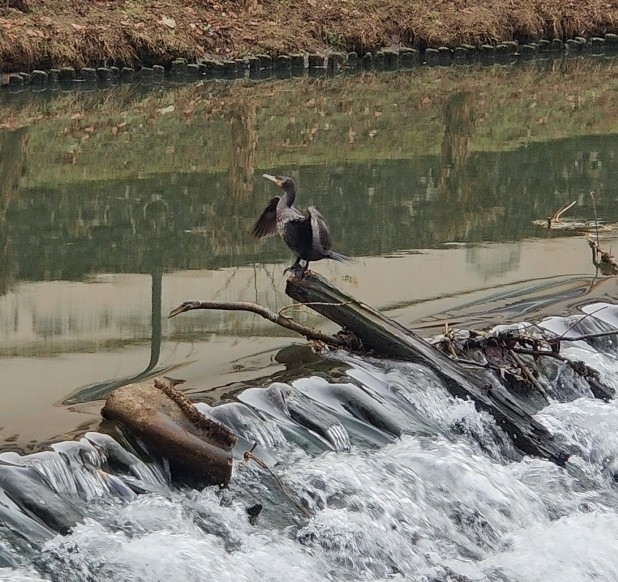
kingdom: Animalia
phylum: Chordata
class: Aves
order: Suliformes
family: Phalacrocoracidae
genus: Phalacrocorax
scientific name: Phalacrocorax carbo
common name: Great cormorant
